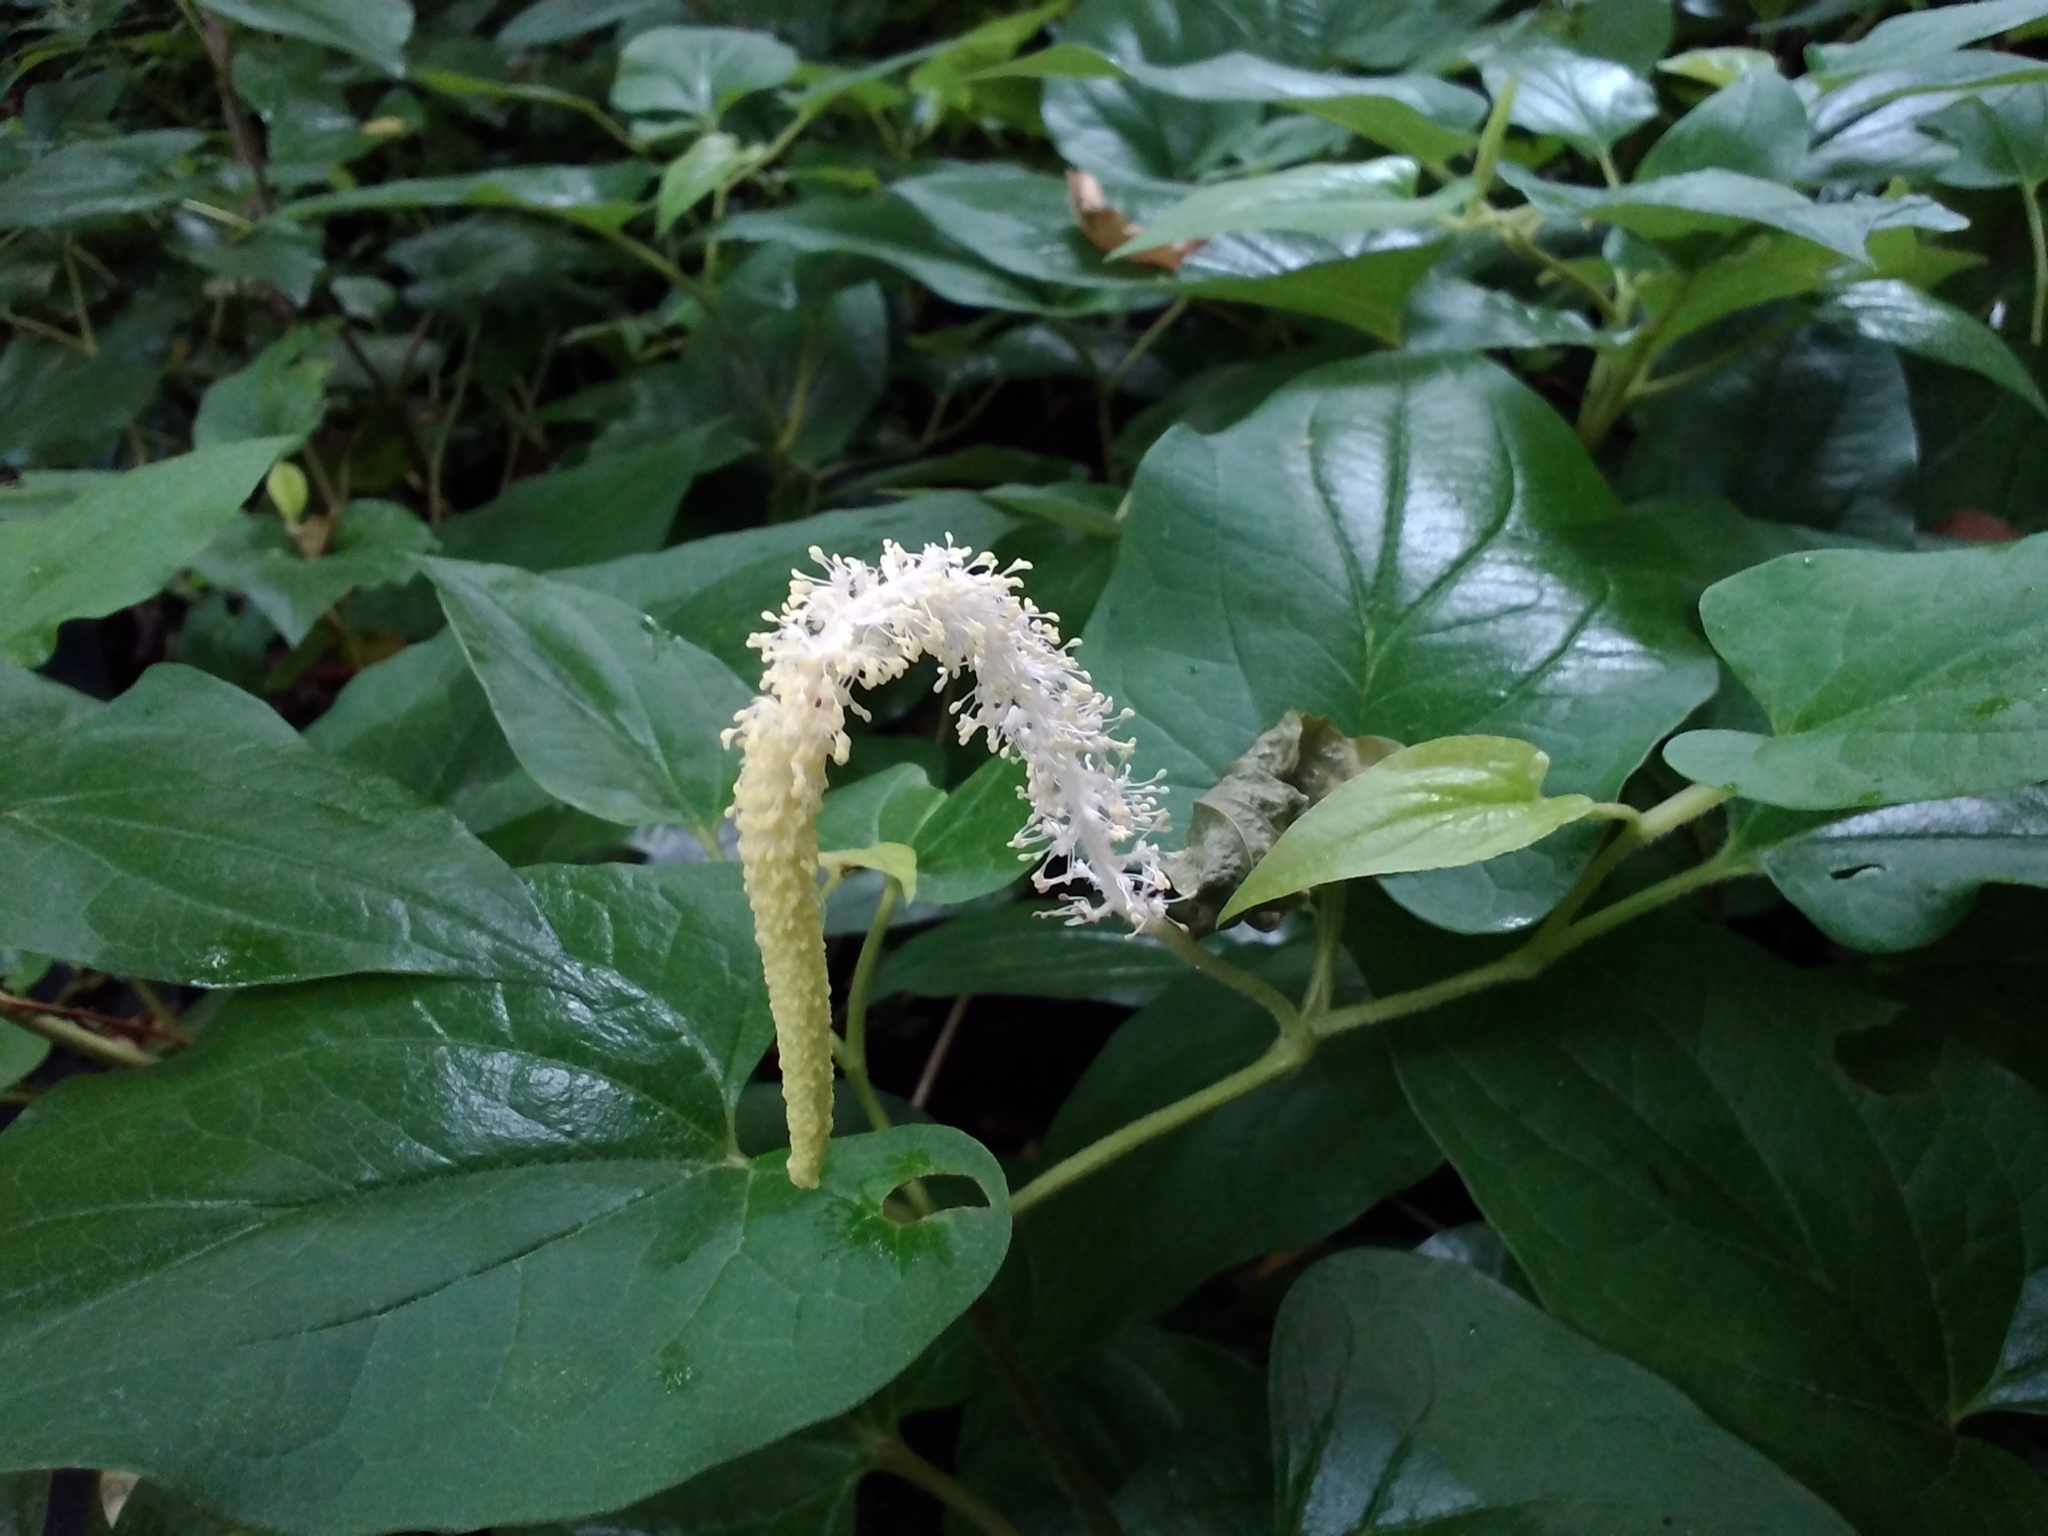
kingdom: Plantae
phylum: Tracheophyta
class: Magnoliopsida
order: Piperales
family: Saururaceae
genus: Saururus
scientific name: Saururus cernuus
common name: Lizard's-tail
